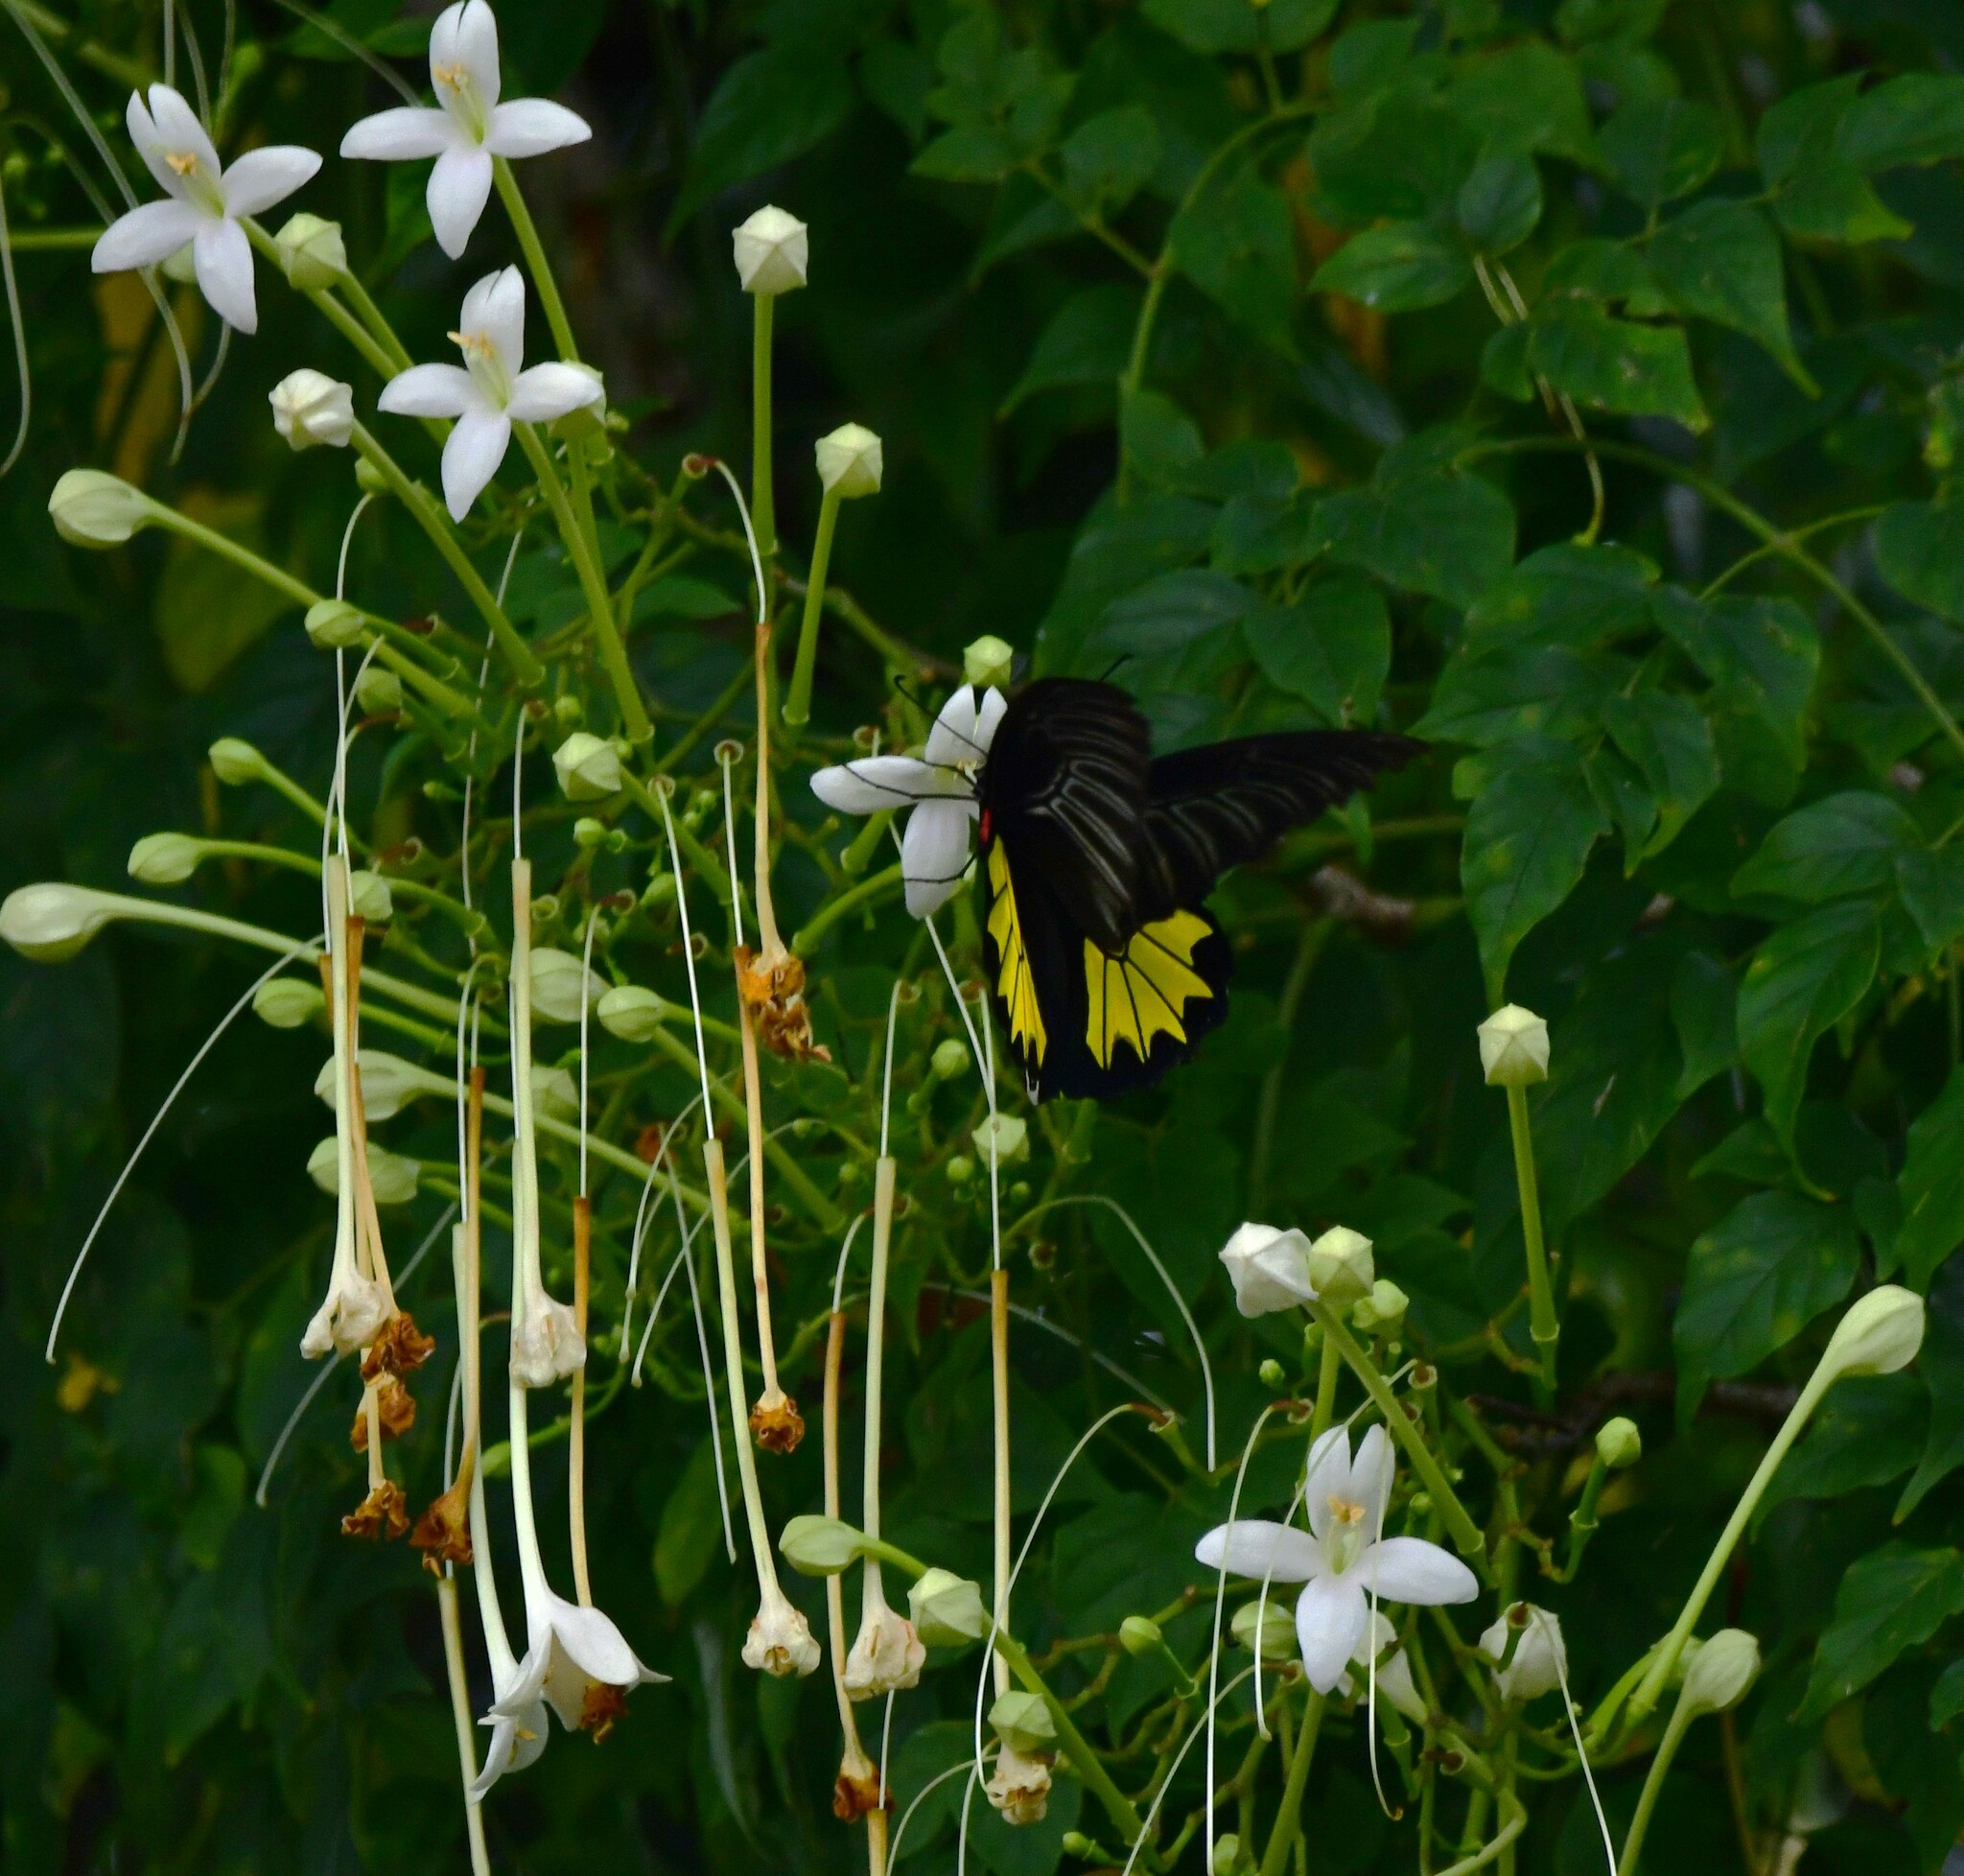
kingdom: Animalia
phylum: Arthropoda
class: Insecta
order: Lepidoptera
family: Papilionidae
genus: Troides
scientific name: Troides minos
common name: Malabar birdwing
